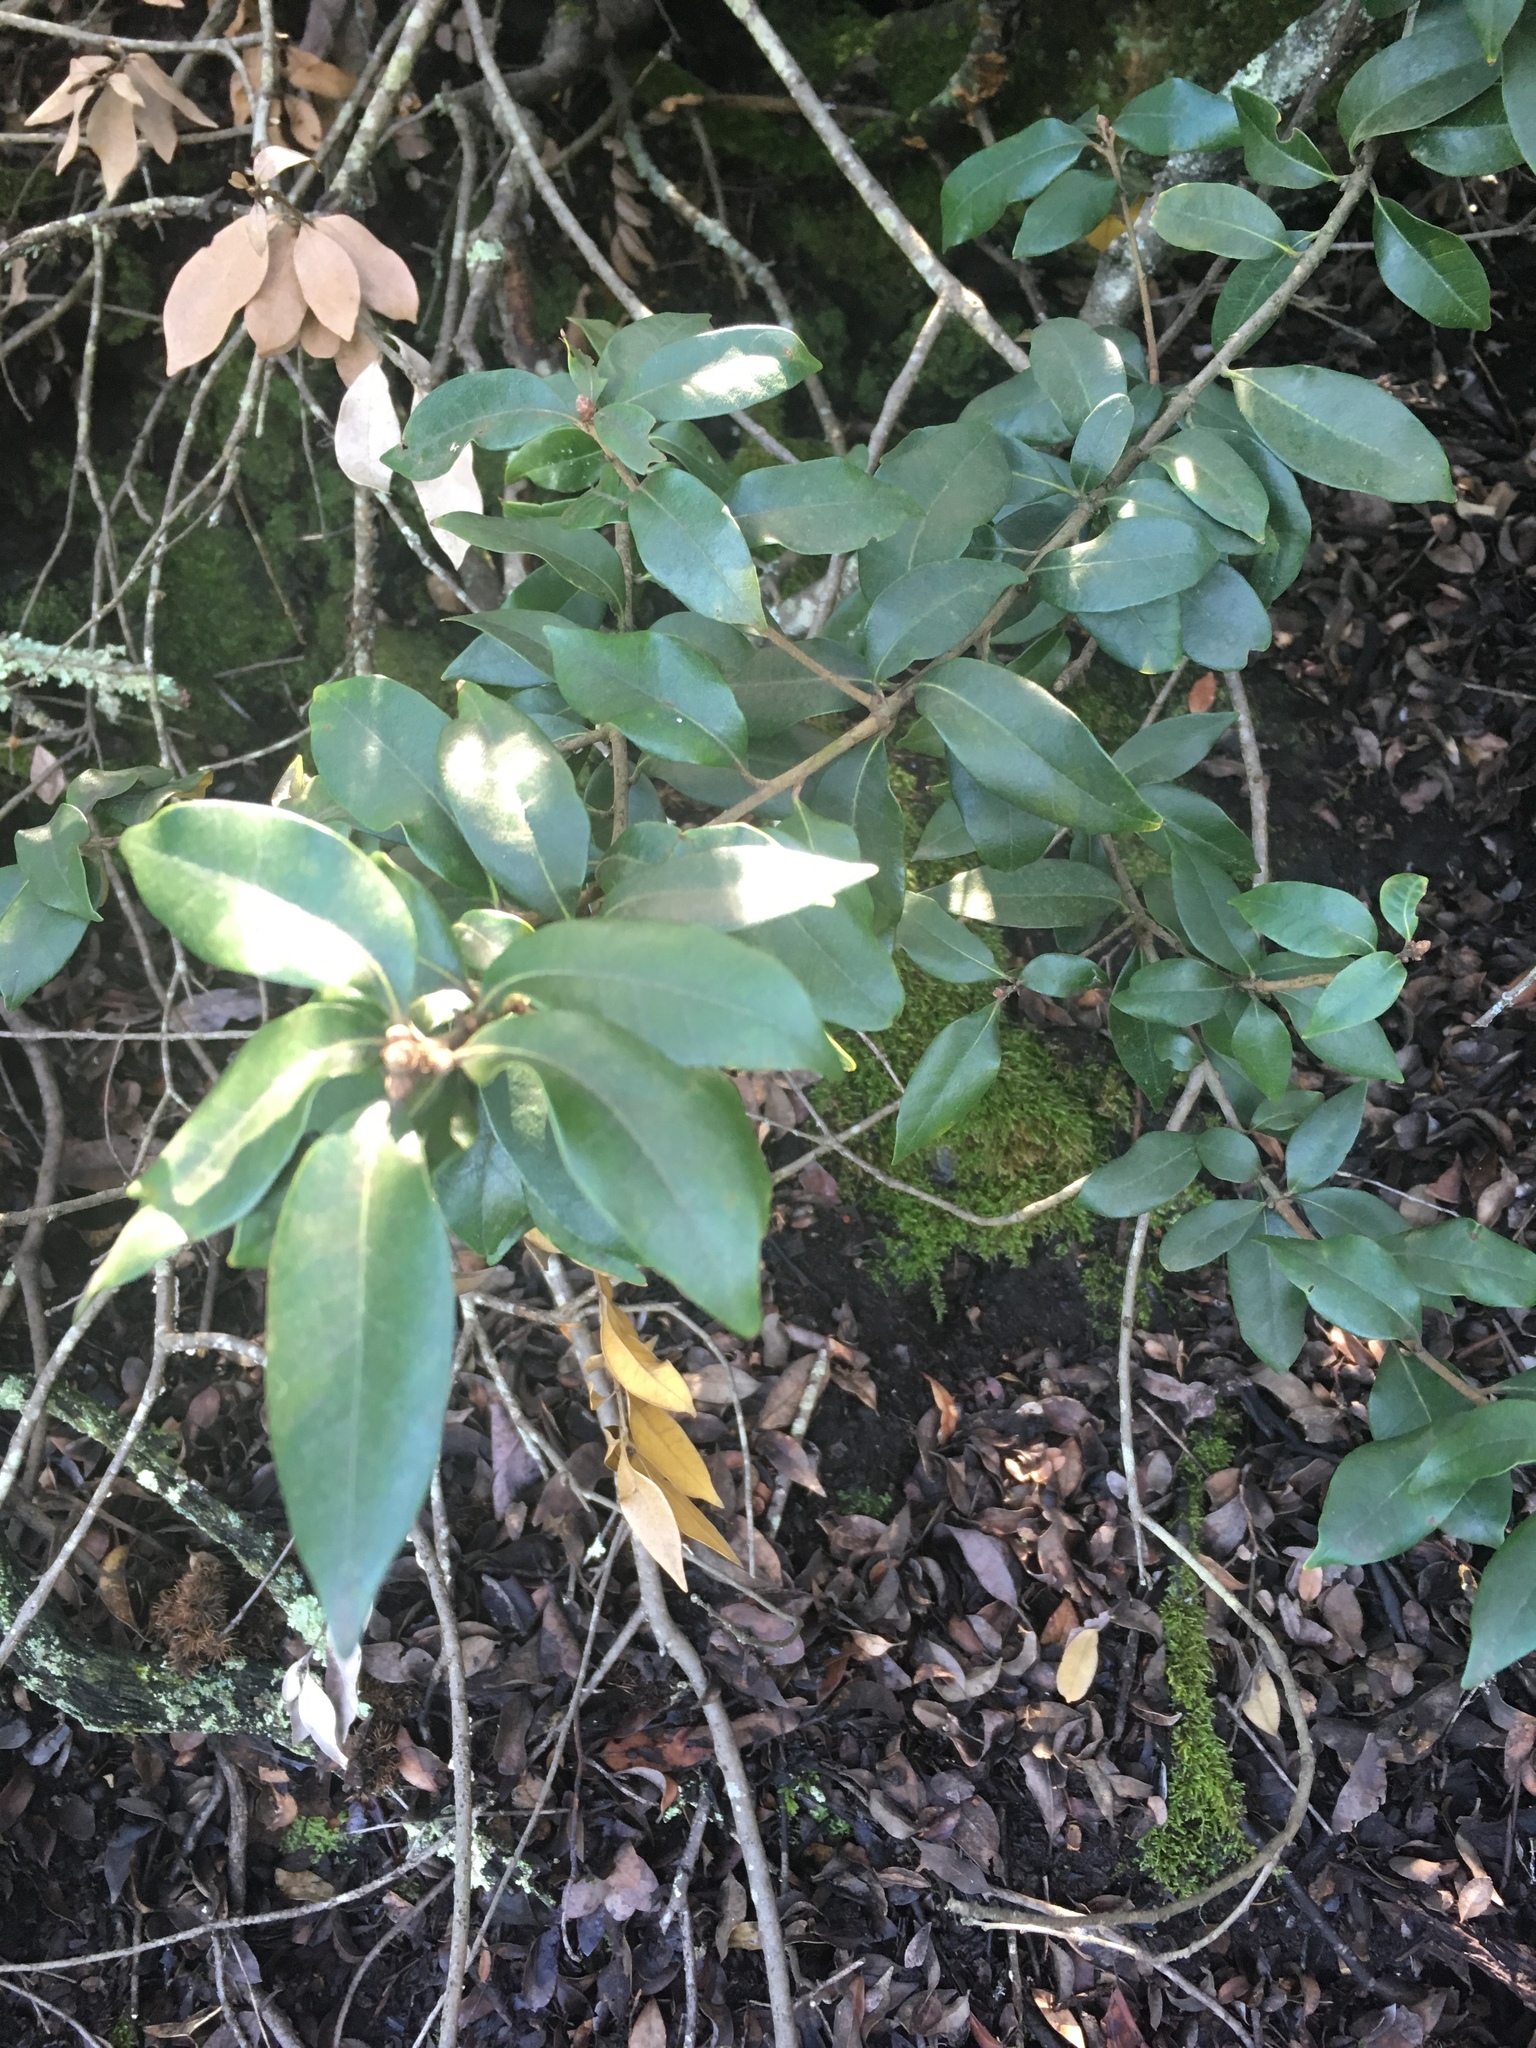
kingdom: Plantae
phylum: Tracheophyta
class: Magnoliopsida
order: Fagales
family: Fagaceae
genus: Chrysolepis
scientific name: Chrysolepis chrysophylla
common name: Giant chinquapin
